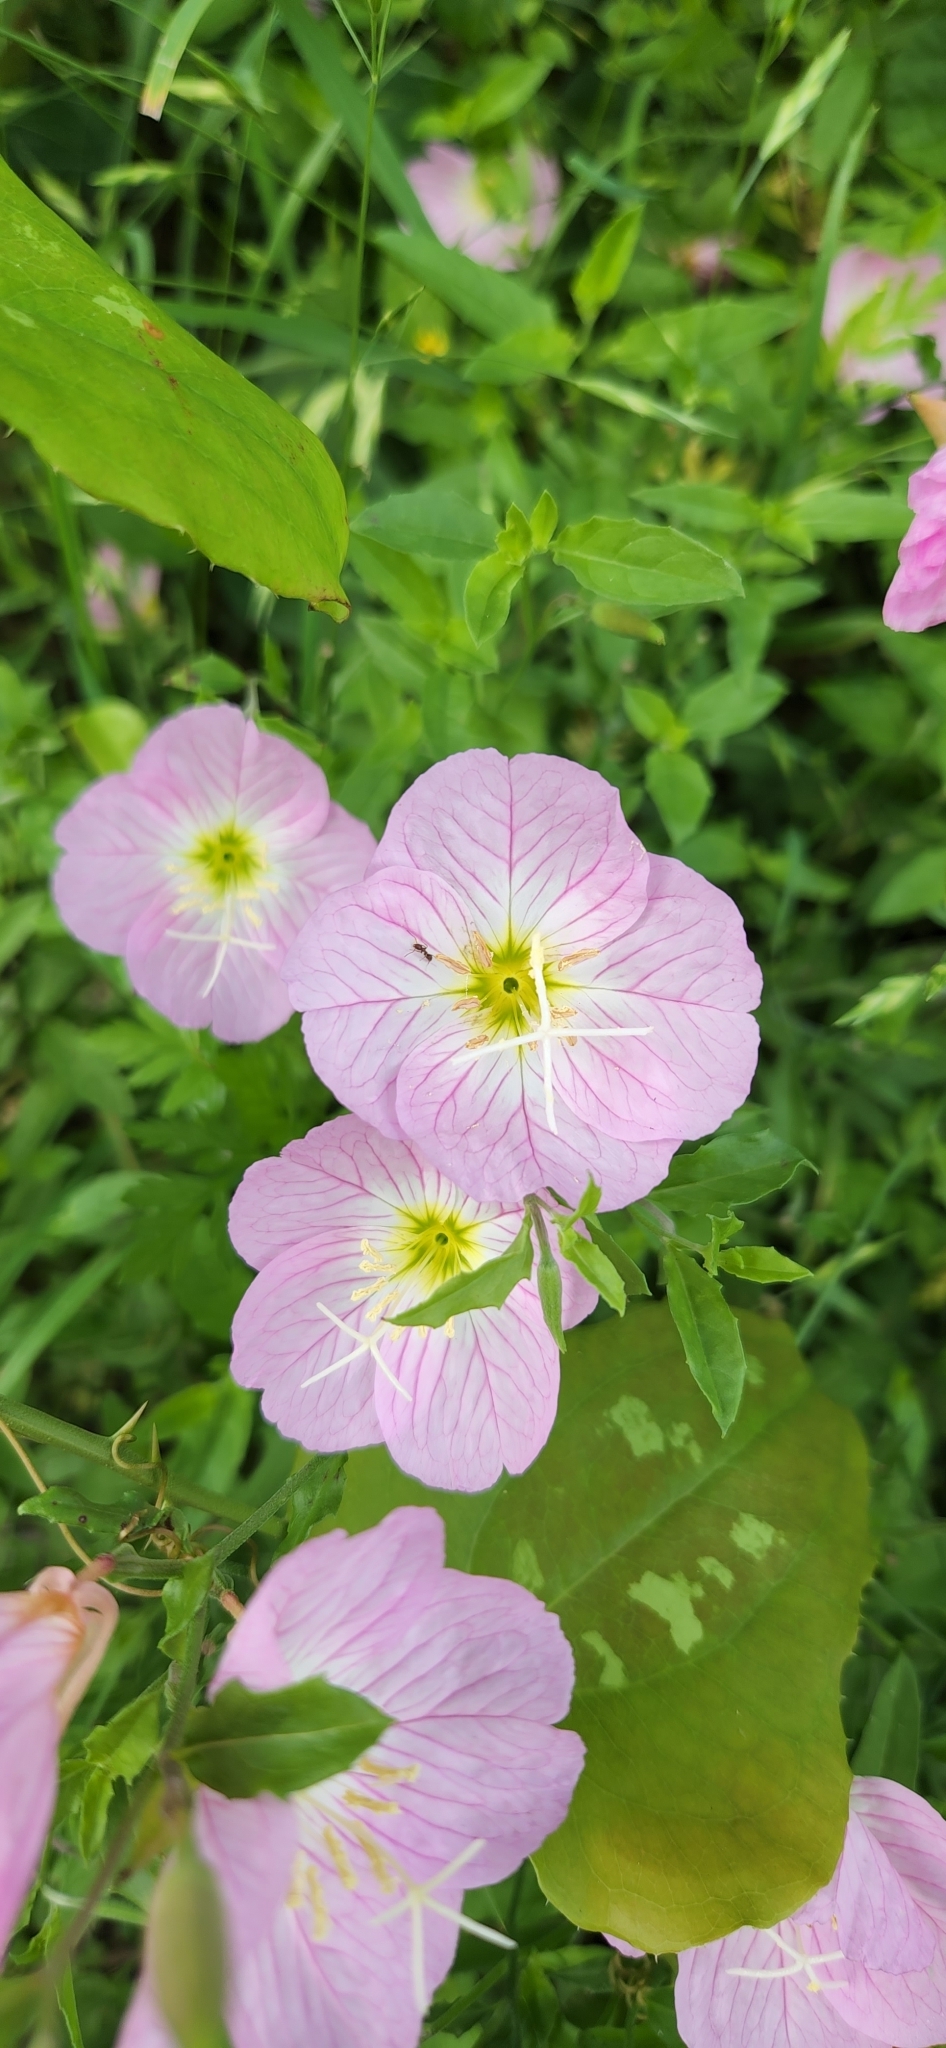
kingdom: Plantae
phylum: Tracheophyta
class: Magnoliopsida
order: Myrtales
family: Onagraceae
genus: Oenothera
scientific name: Oenothera speciosa
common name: White evening-primrose
